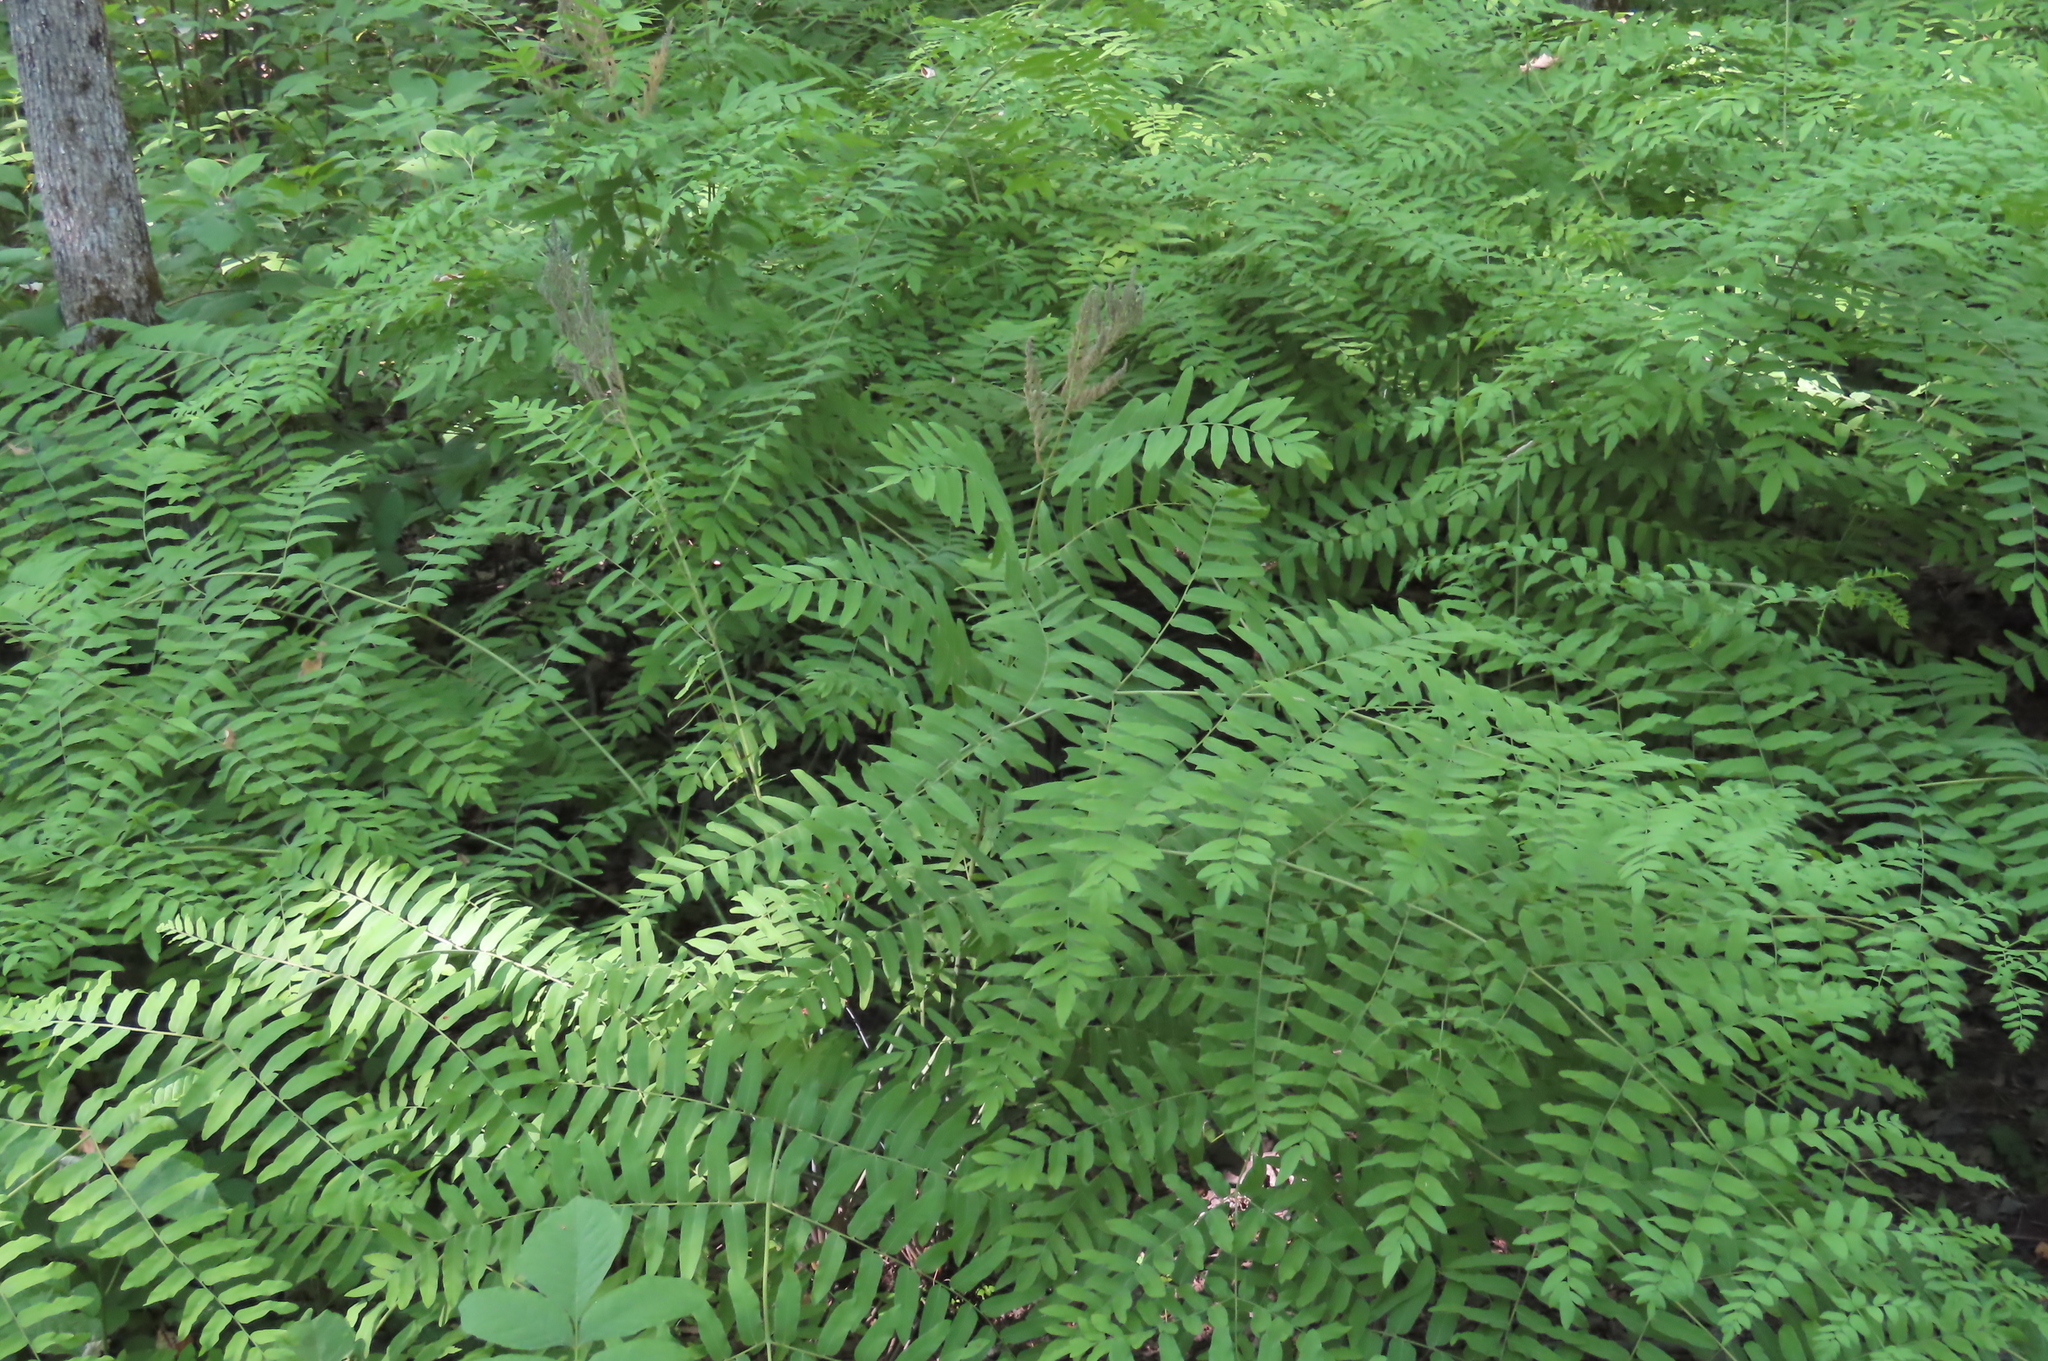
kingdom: Plantae
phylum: Tracheophyta
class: Polypodiopsida
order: Osmundales
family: Osmundaceae
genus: Osmunda
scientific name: Osmunda spectabilis
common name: American royal fern
